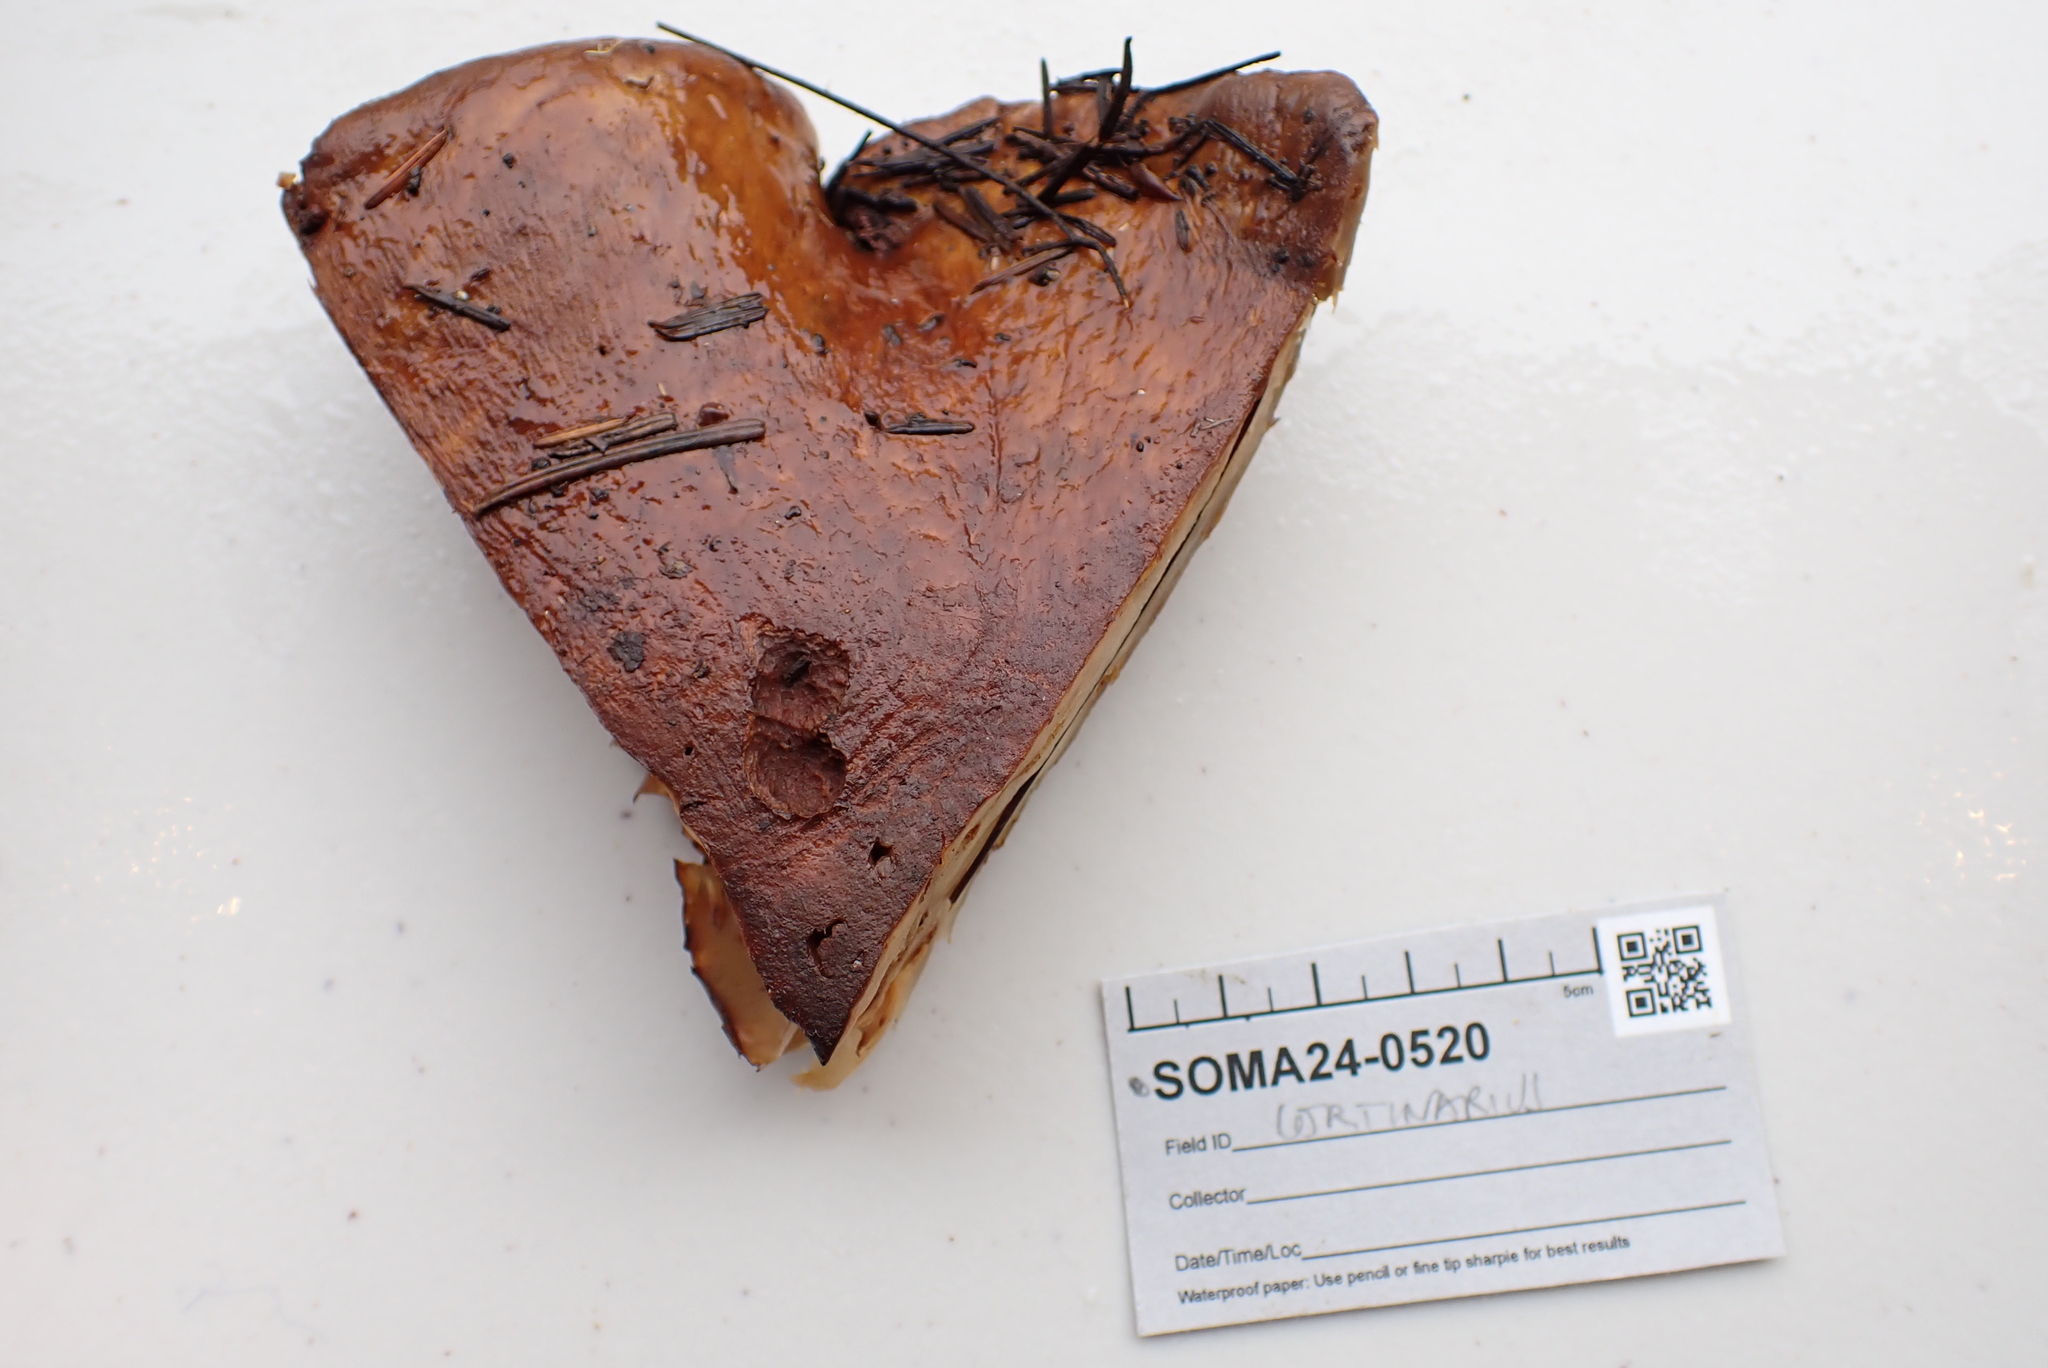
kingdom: Fungi
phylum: Basidiomycota
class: Agaricomycetes
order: Agaricales
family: Cortinariaceae
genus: Phlegmacium
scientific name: Phlegmacium ponderosum
